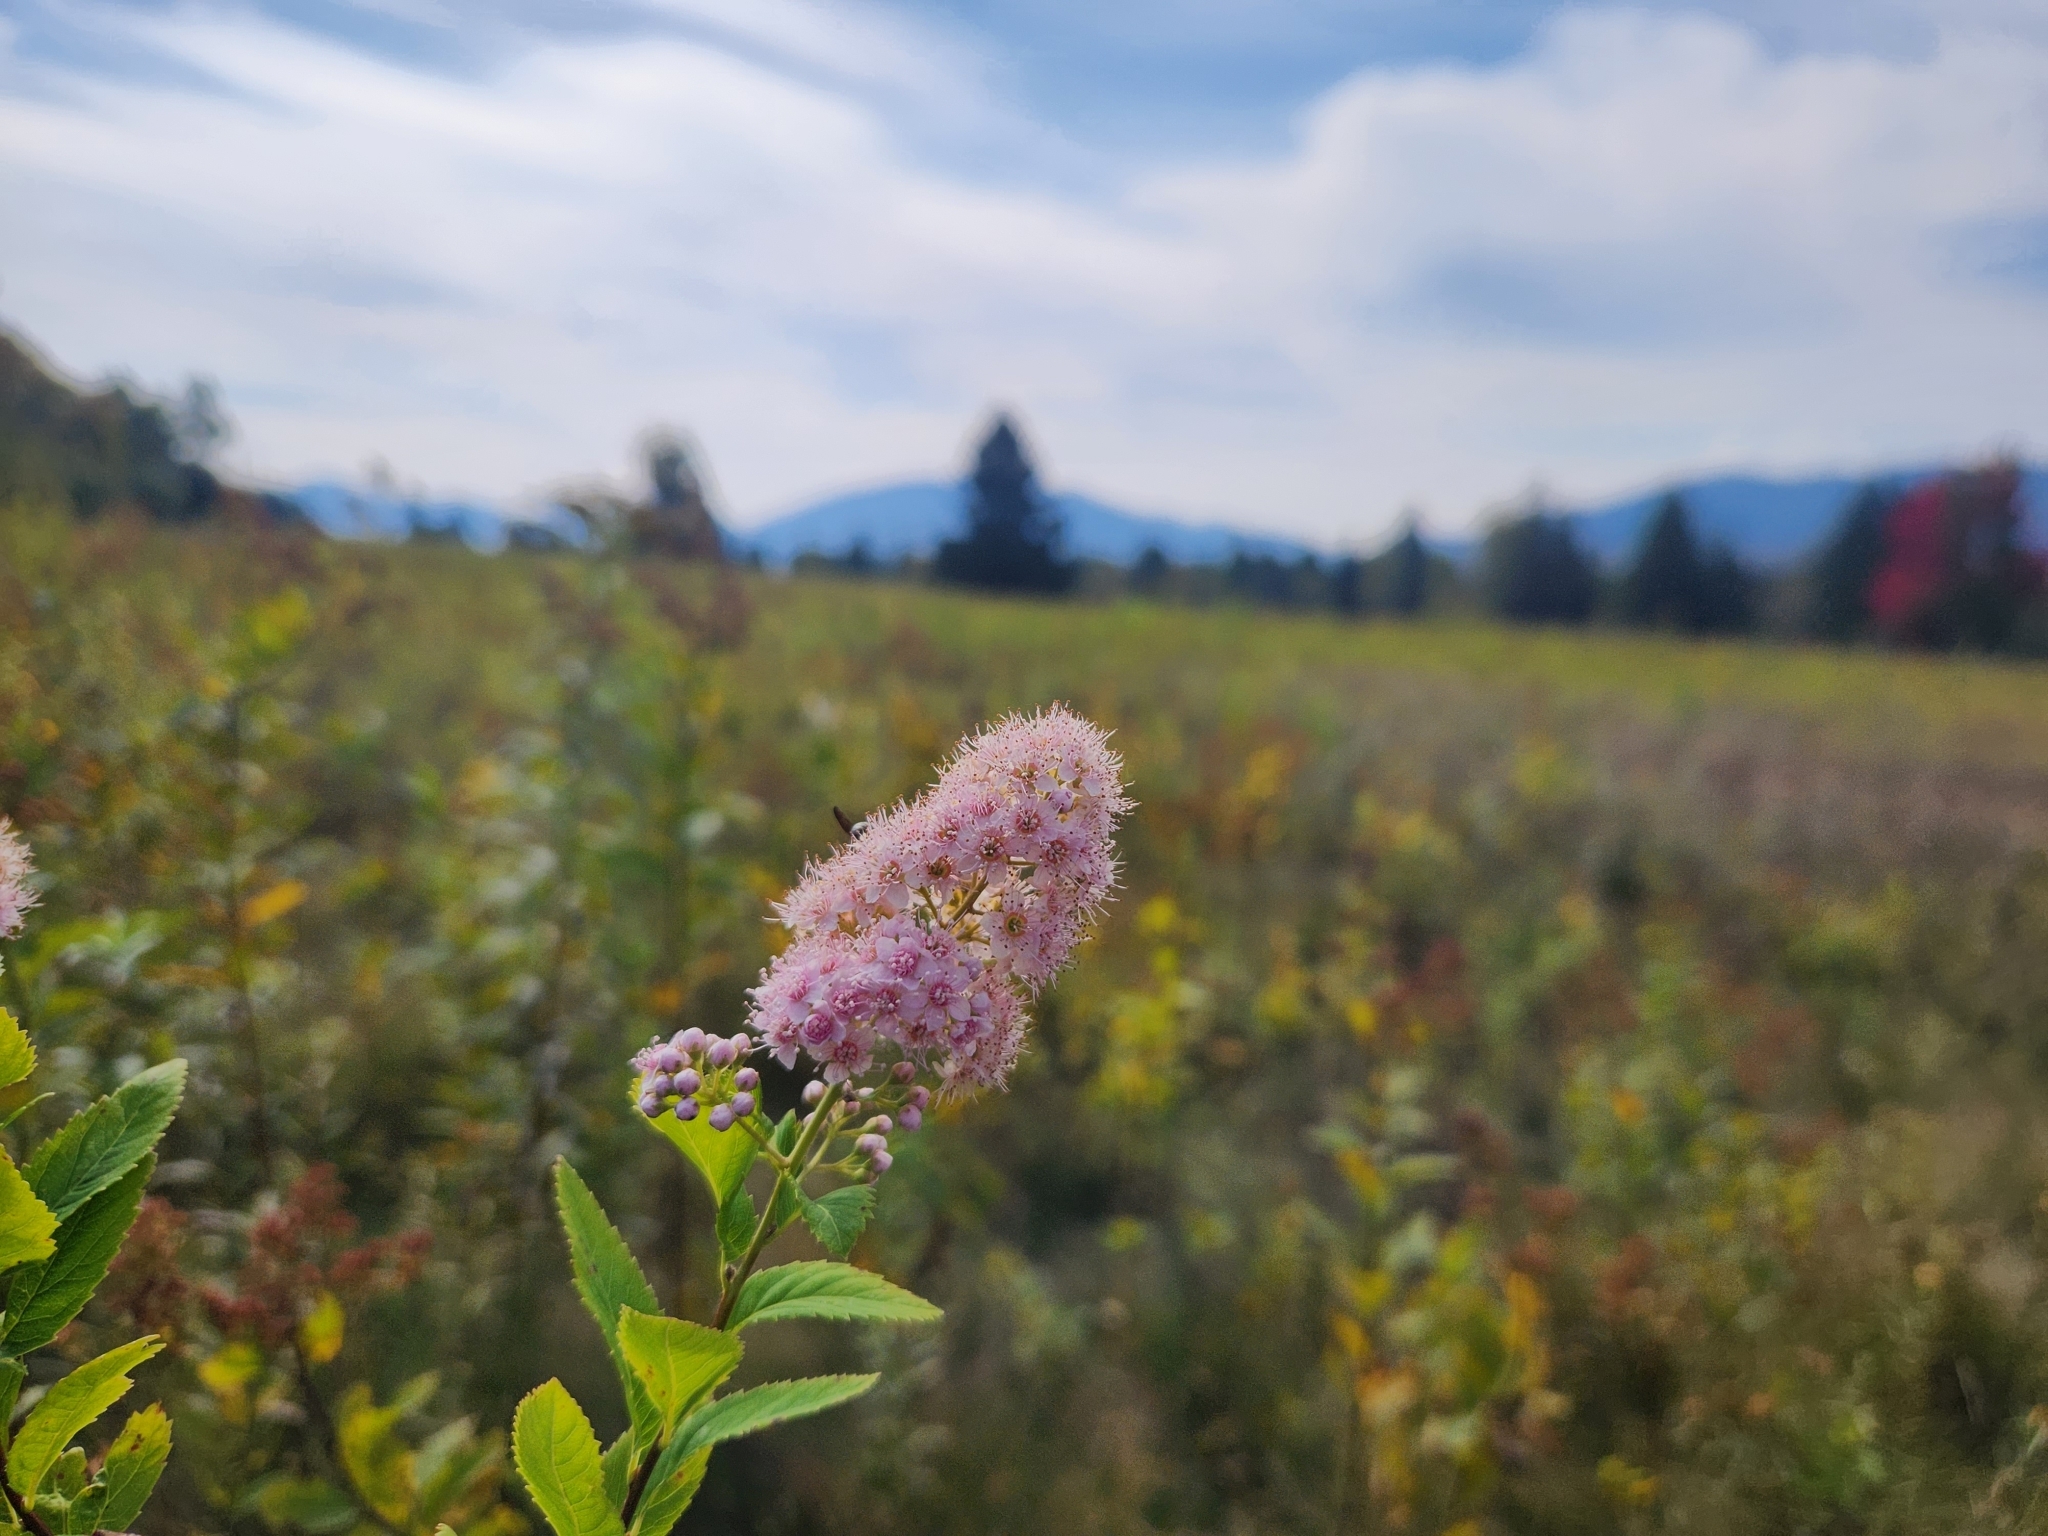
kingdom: Plantae
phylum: Tracheophyta
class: Magnoliopsida
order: Rosales
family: Rosaceae
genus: Spiraea
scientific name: Spiraea alba
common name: Pale bridewort
